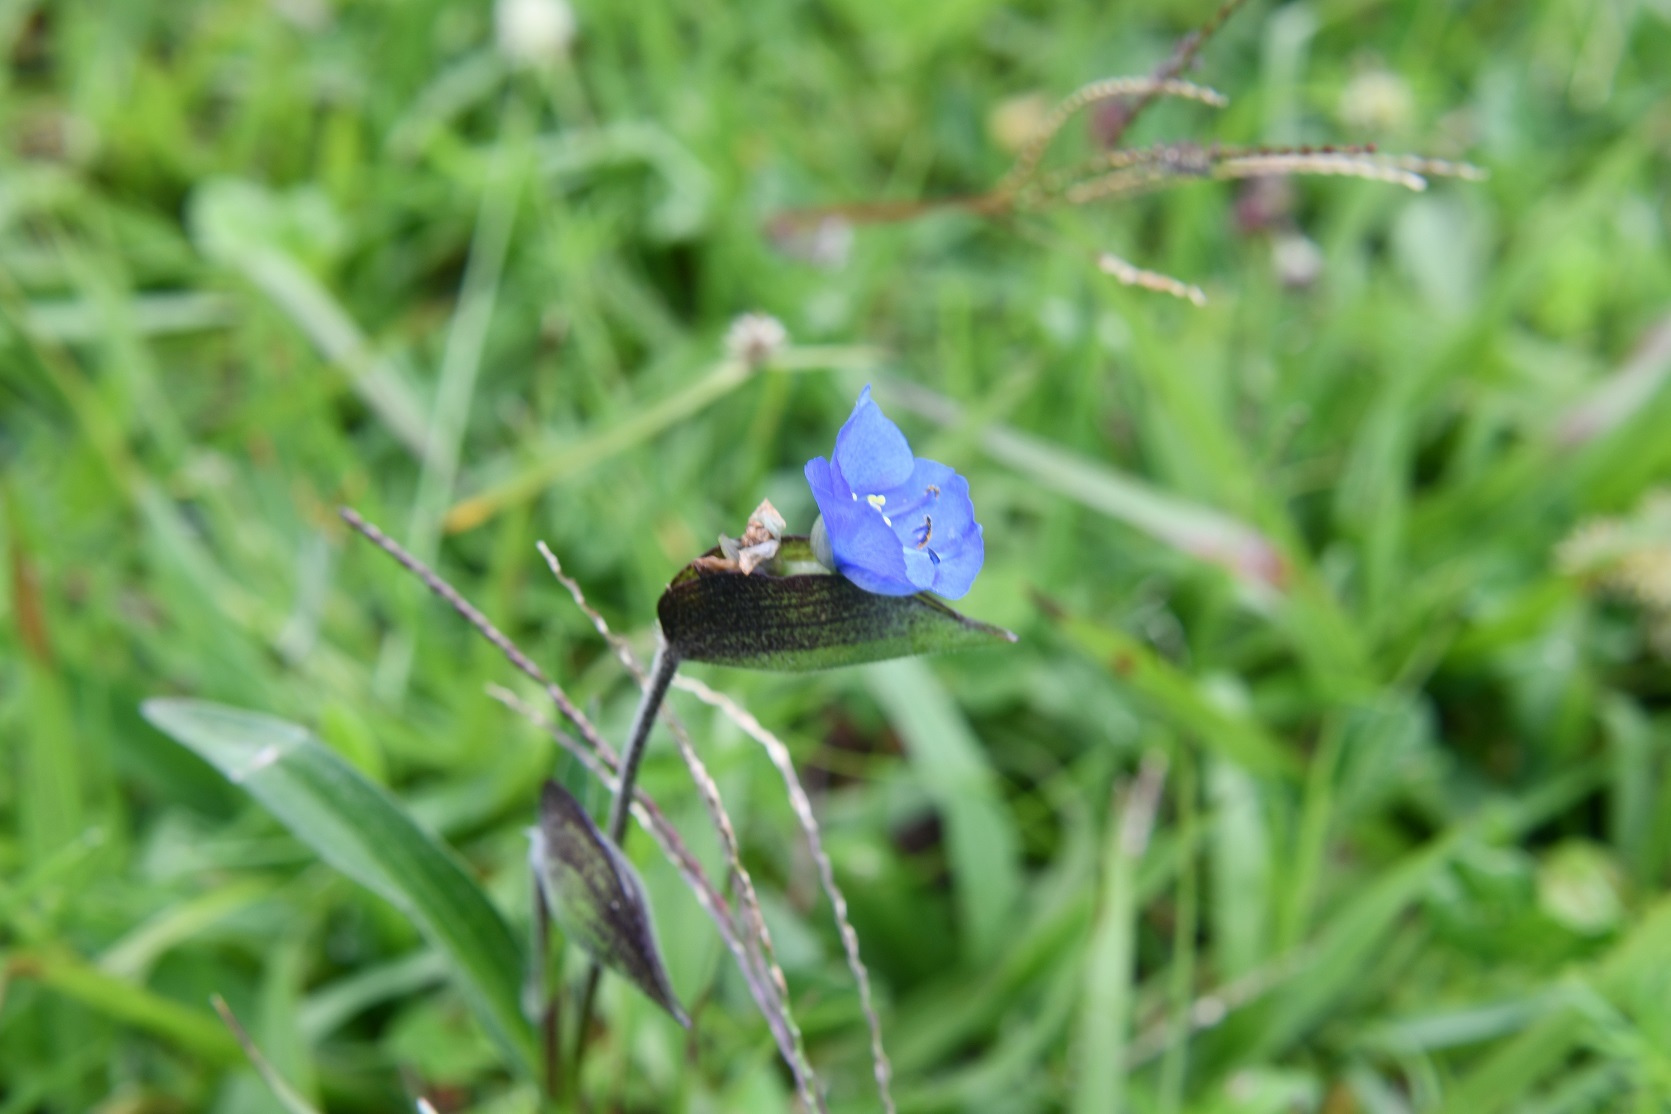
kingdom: Plantae
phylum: Tracheophyta
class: Liliopsida
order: Commelinales
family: Commelinaceae
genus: Commelina
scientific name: Commelina tuberosa
